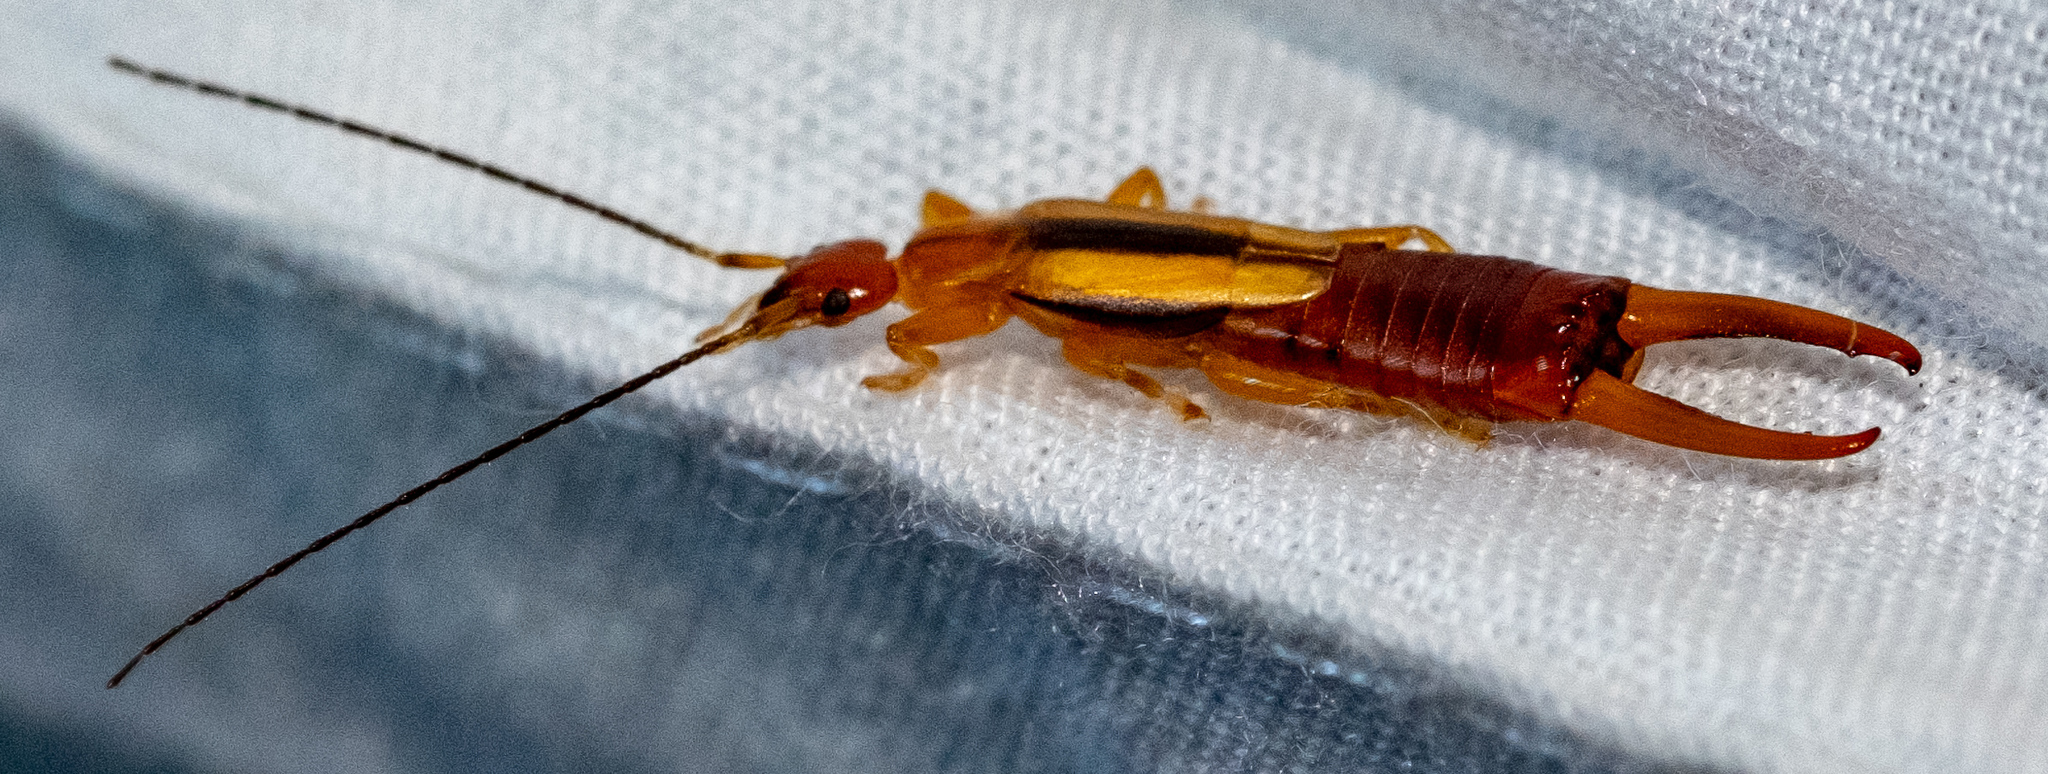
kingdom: Animalia
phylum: Arthropoda
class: Insecta
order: Dermaptera
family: Chelisochidae
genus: Proreus
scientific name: Proreus simulans
